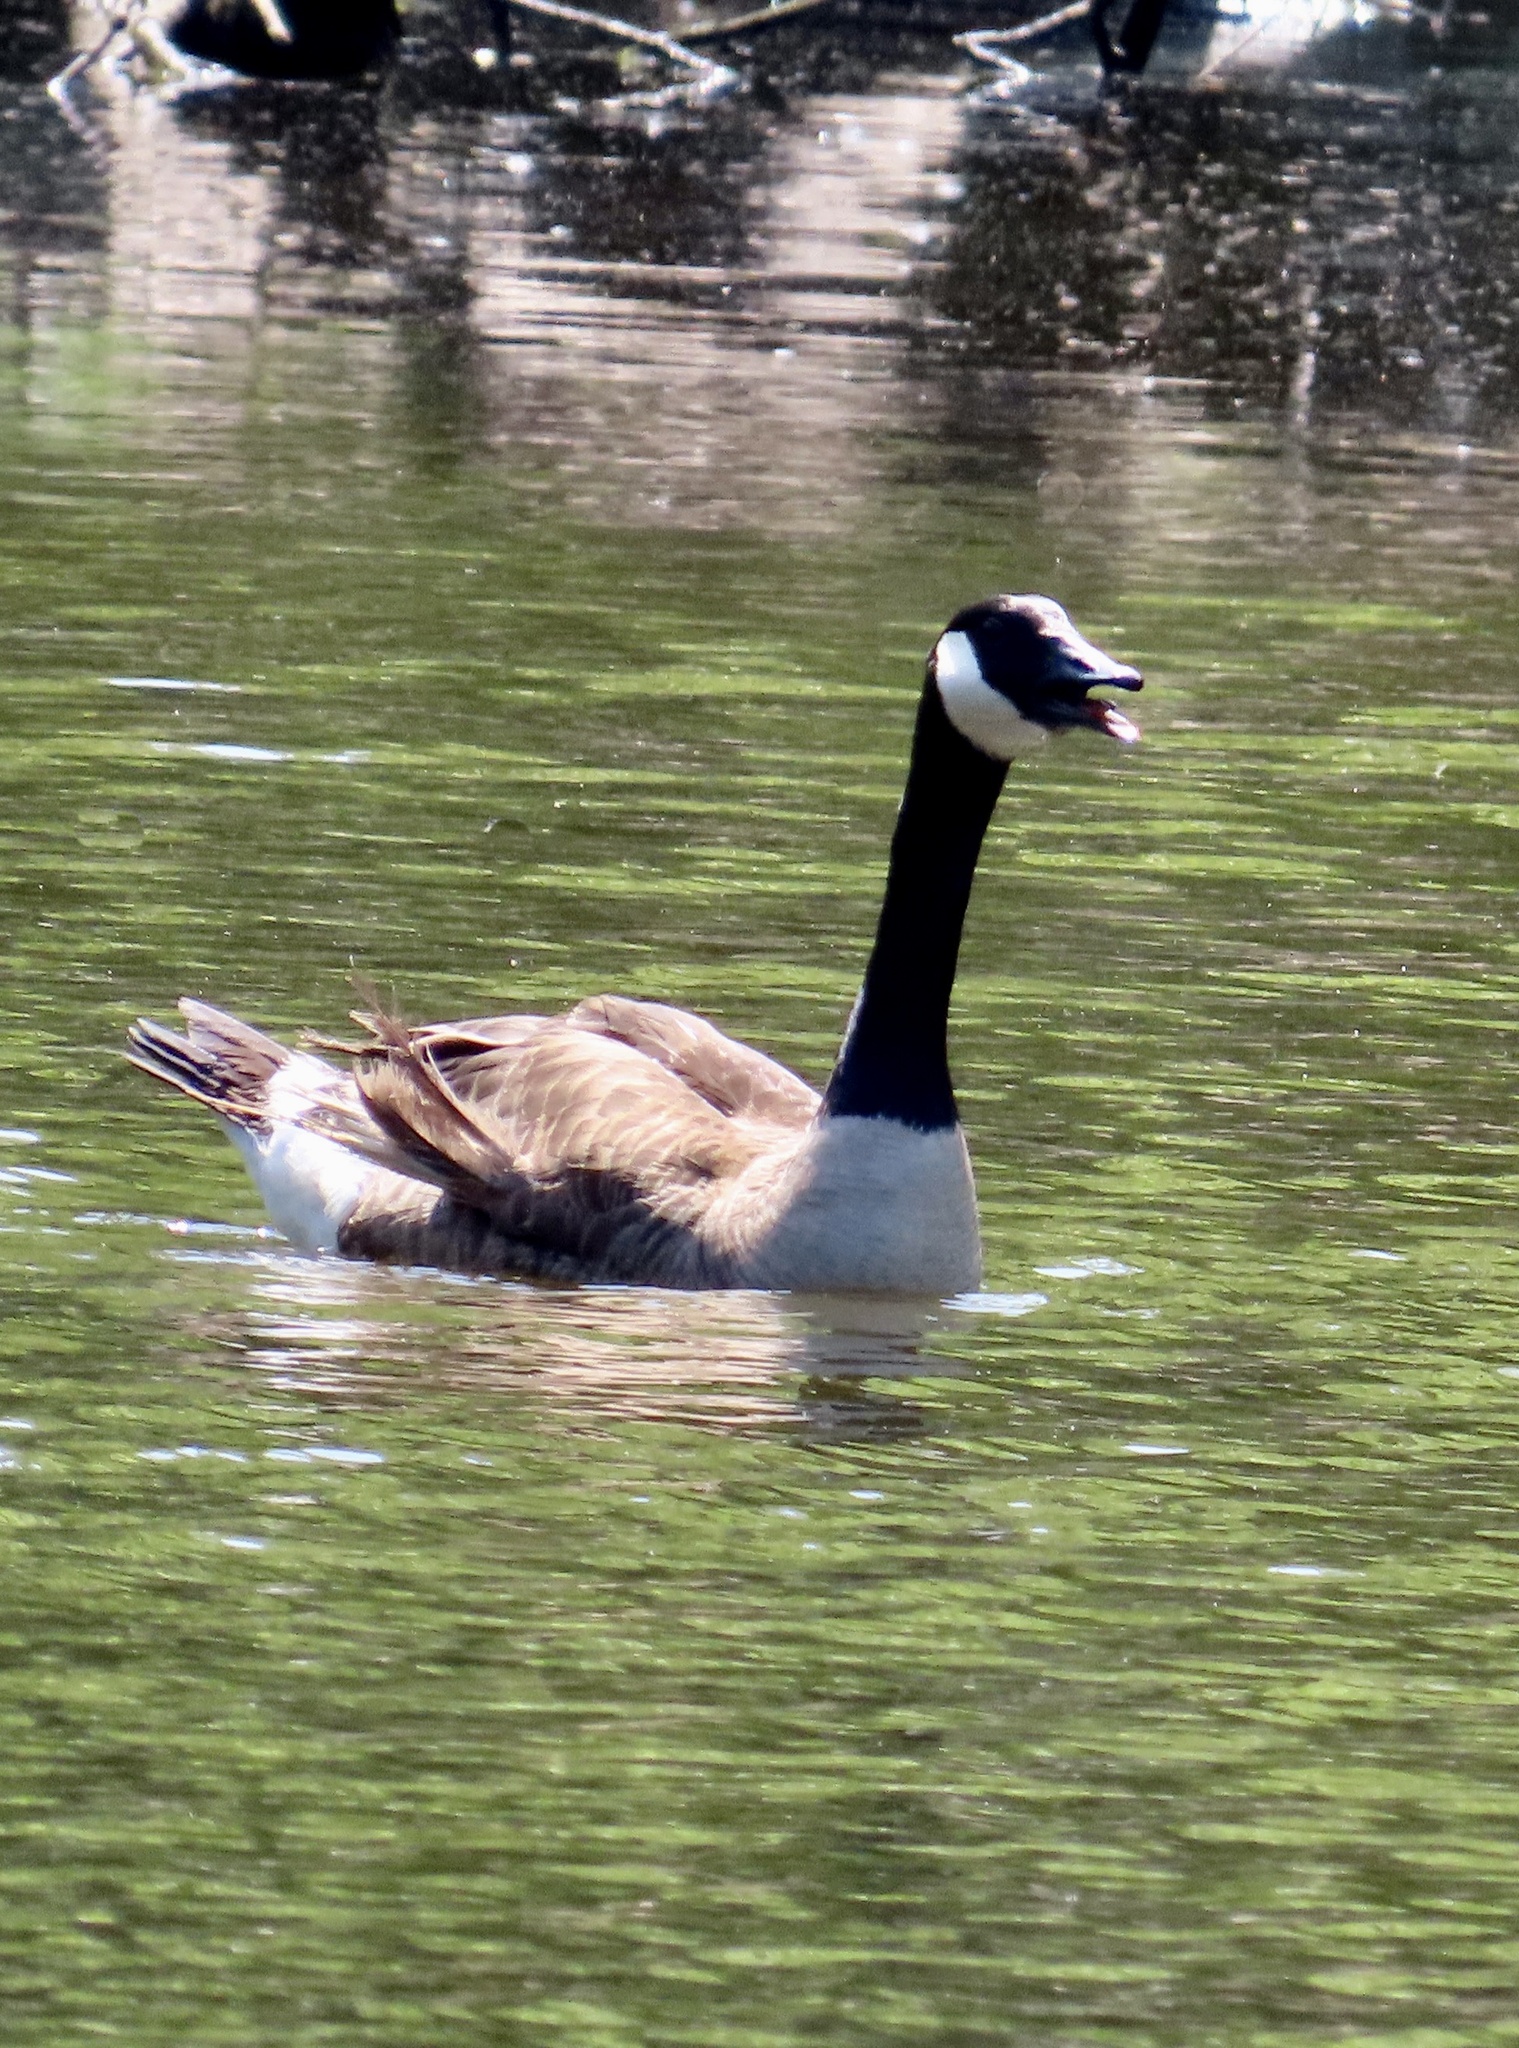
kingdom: Animalia
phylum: Chordata
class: Aves
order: Anseriformes
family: Anatidae
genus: Branta
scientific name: Branta canadensis
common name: Canada goose
